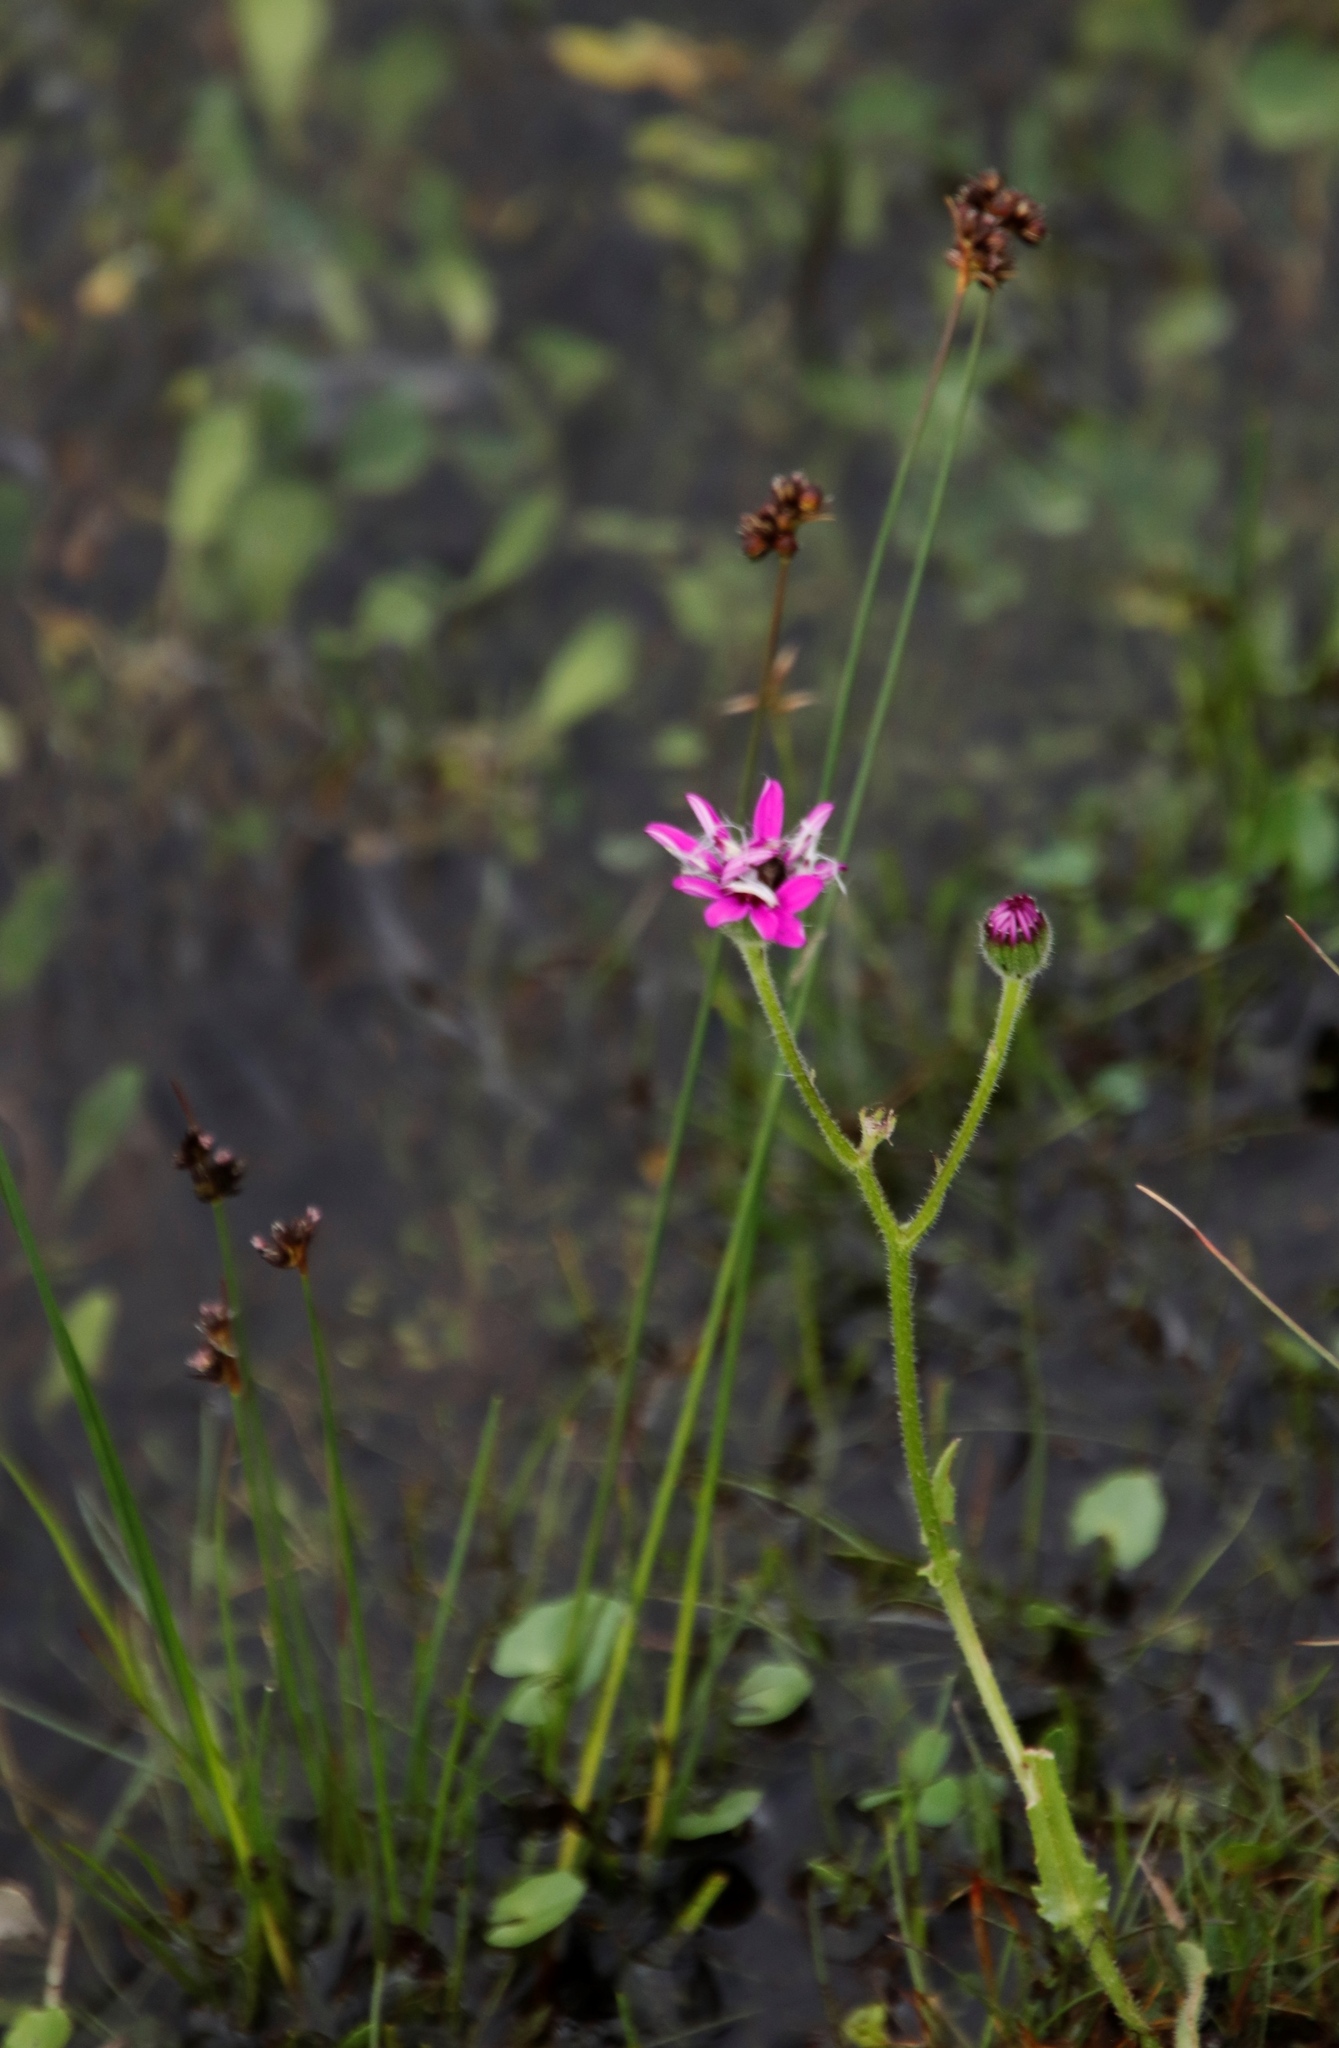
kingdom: Plantae
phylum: Tracheophyta
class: Magnoliopsida
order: Asterales
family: Asteraceae
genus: Senecio
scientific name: Senecio speciosus
